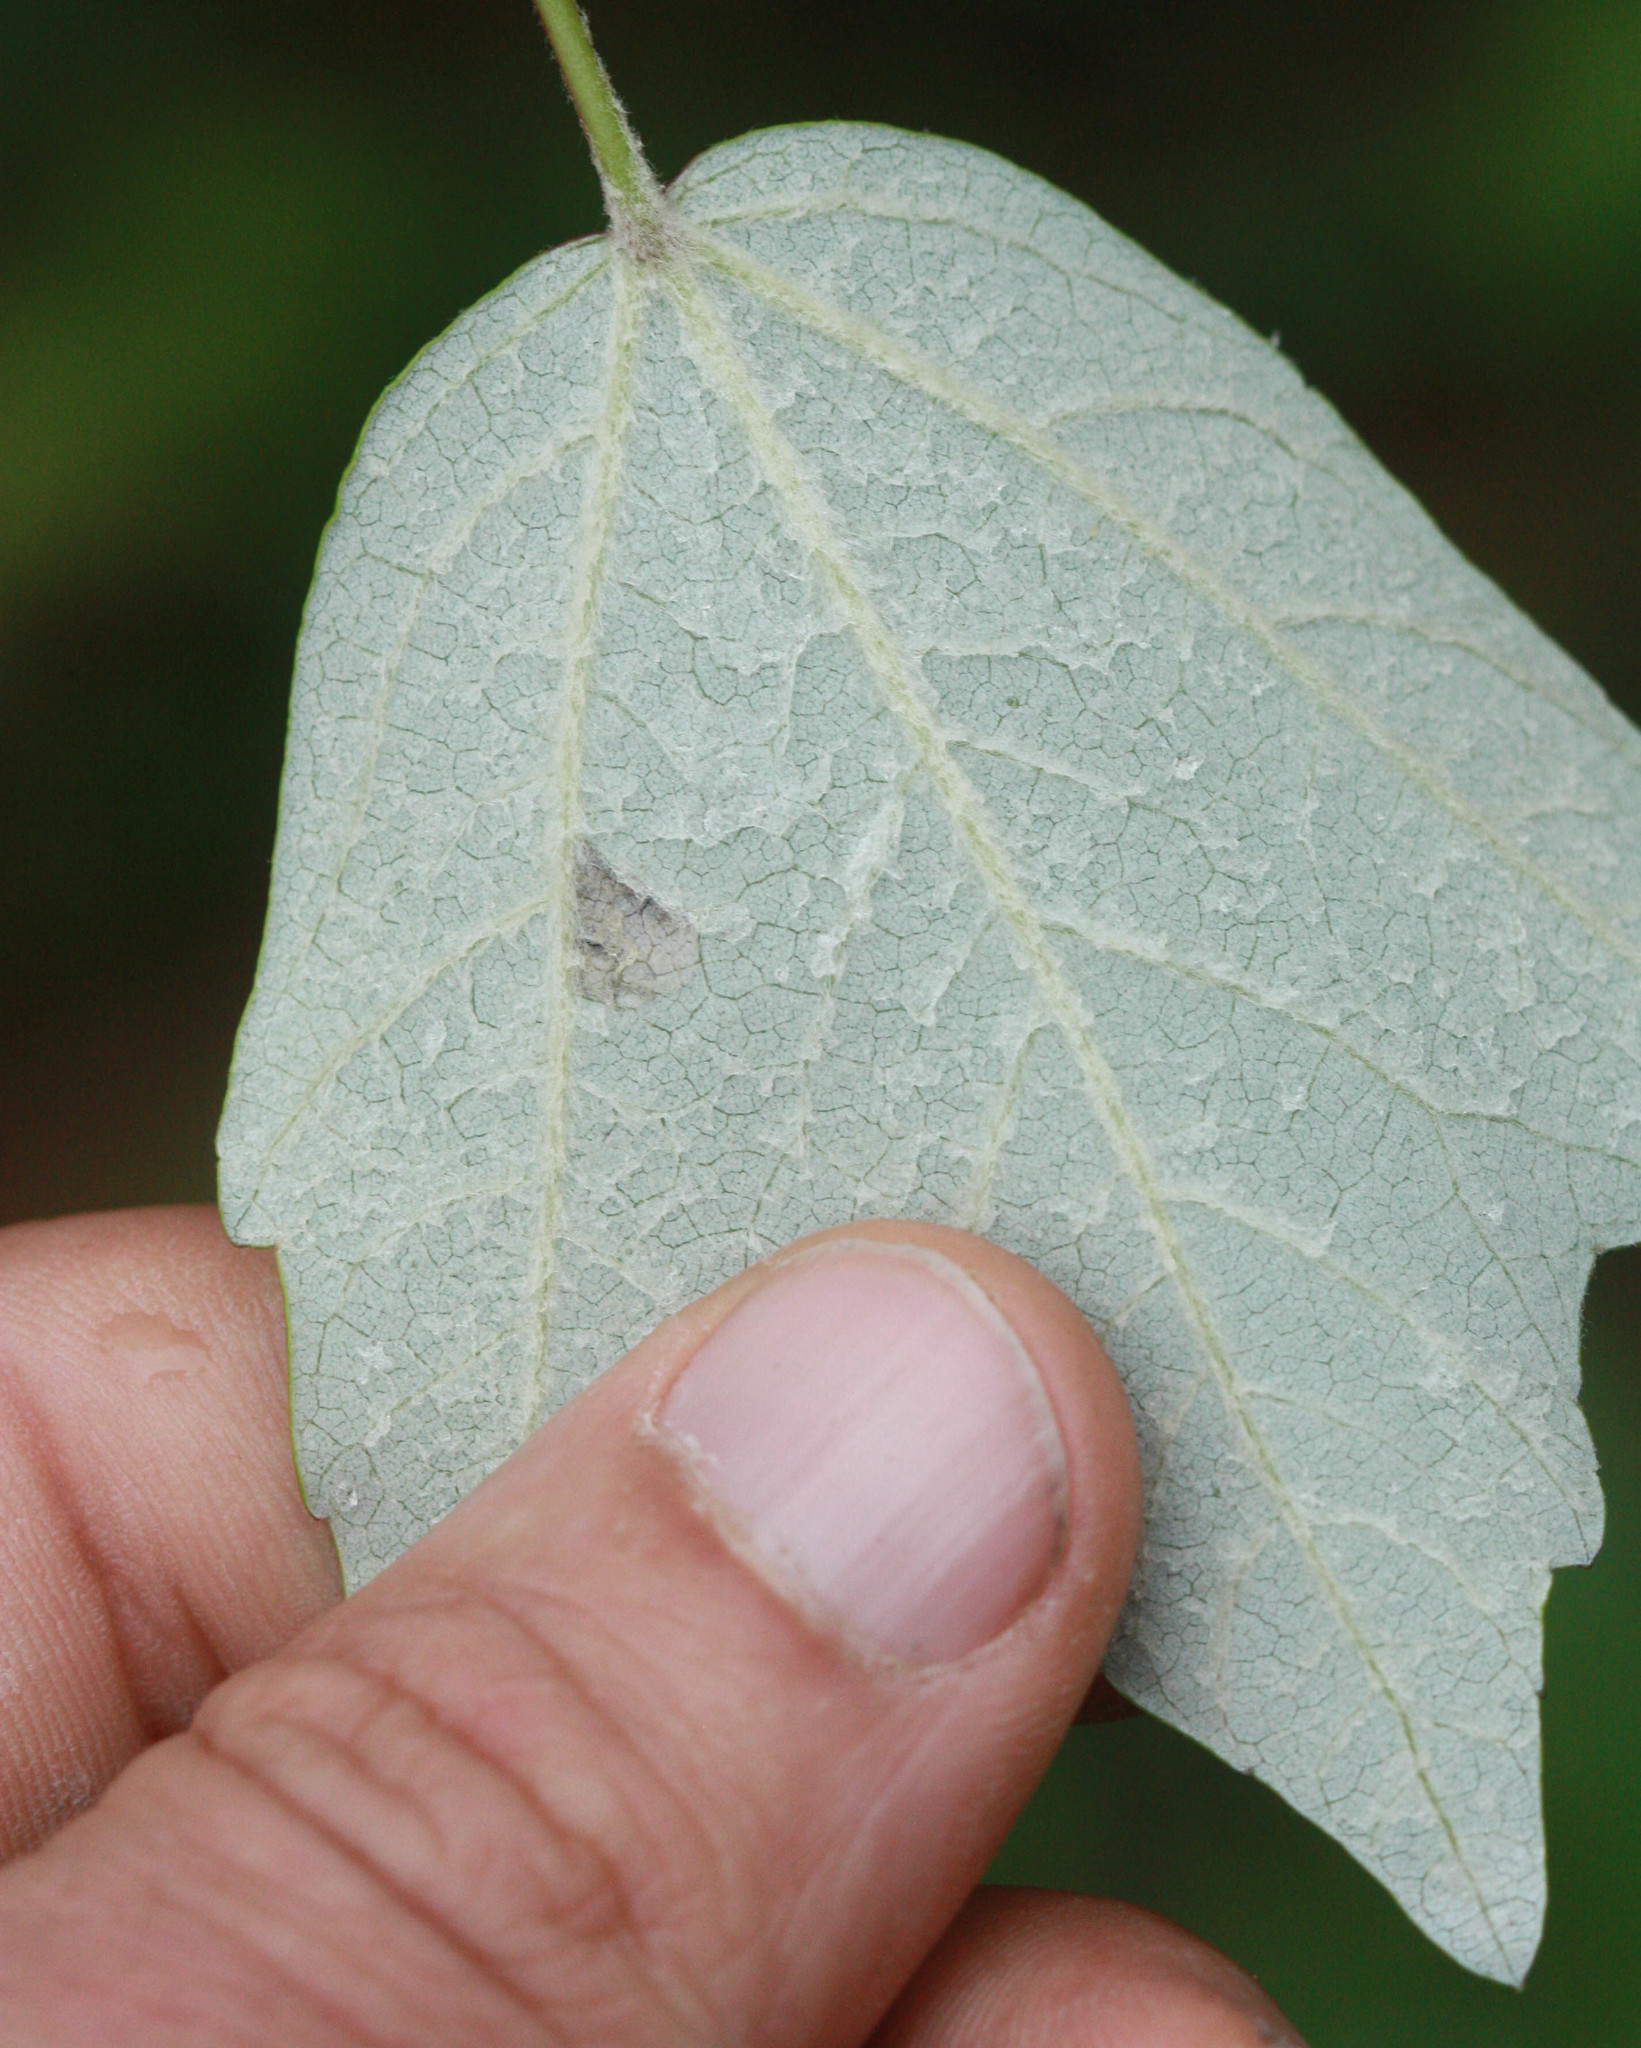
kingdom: Plantae
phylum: Tracheophyta
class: Magnoliopsida
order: Sapindales
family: Sapindaceae
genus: Acer
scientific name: Acer rubrum
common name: Red maple
